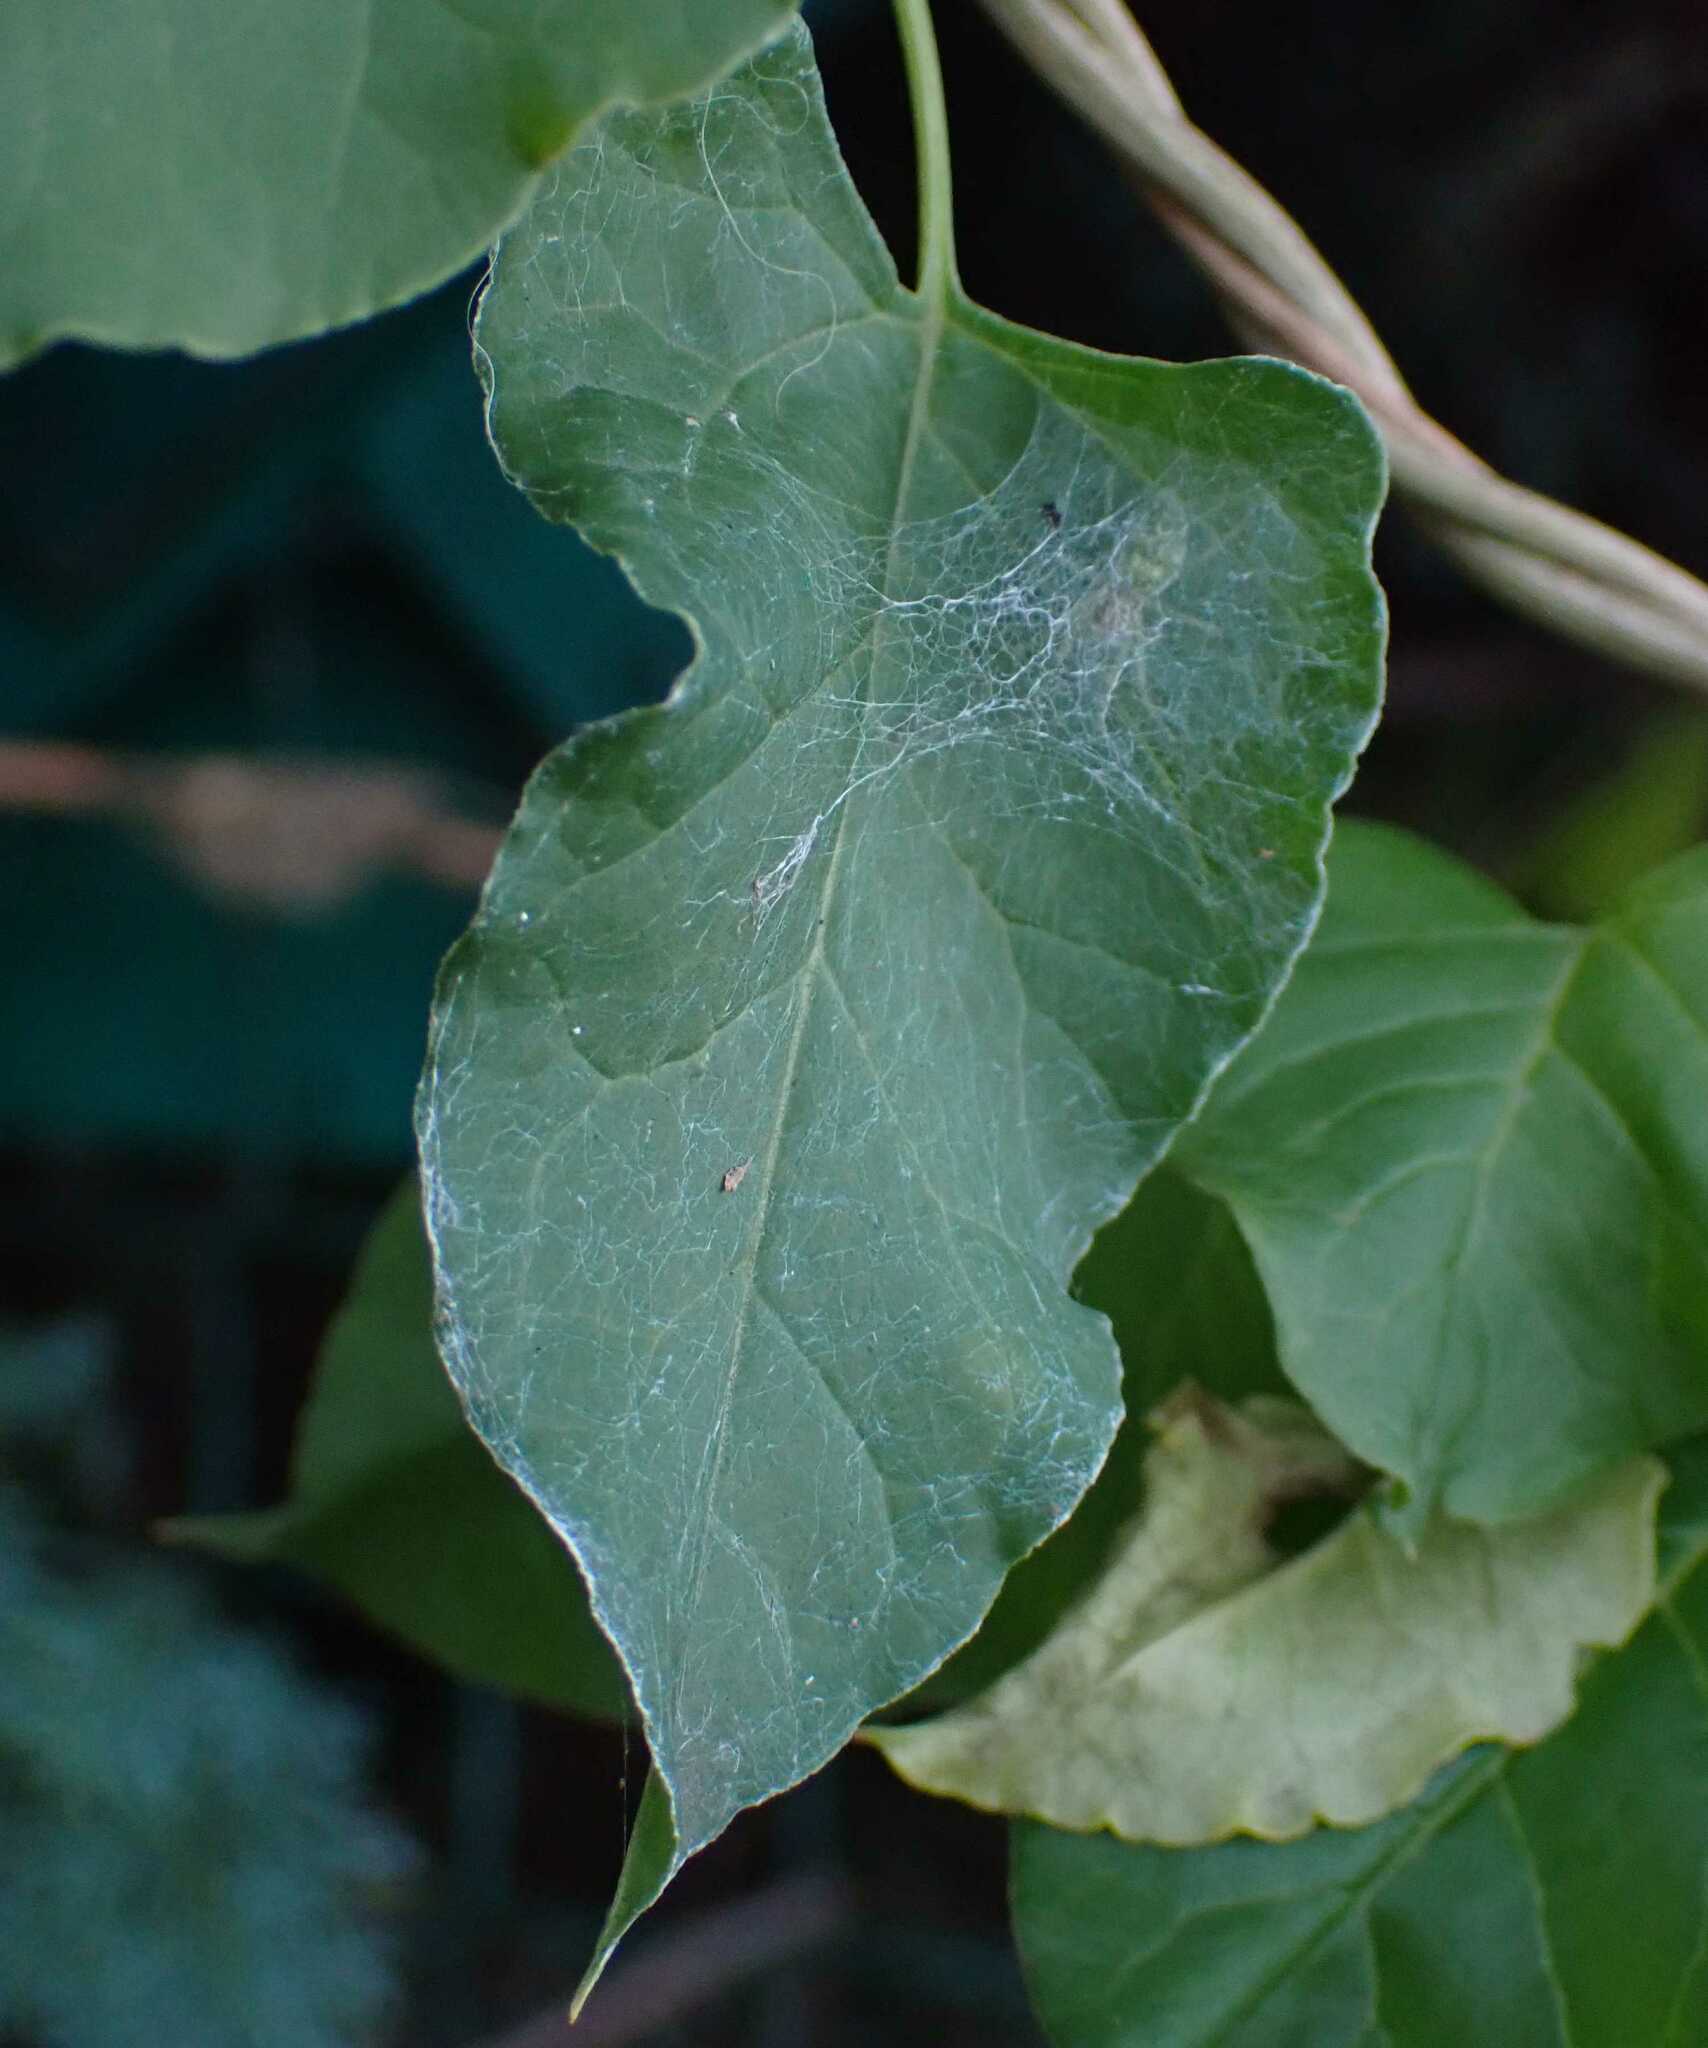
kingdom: Animalia
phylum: Arthropoda
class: Arachnida
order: Araneae
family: Dictynidae
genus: Nigma
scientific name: Nigma walckenaeri
